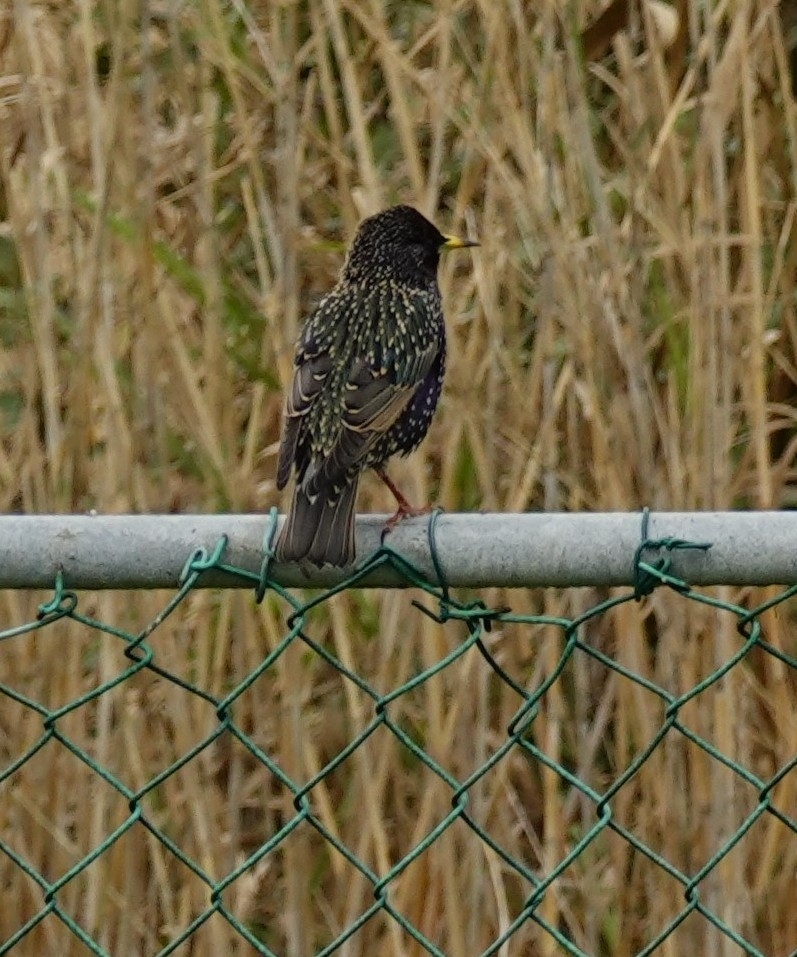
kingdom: Animalia
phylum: Chordata
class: Aves
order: Passeriformes
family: Sturnidae
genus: Sturnus
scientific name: Sturnus vulgaris
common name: Common starling
